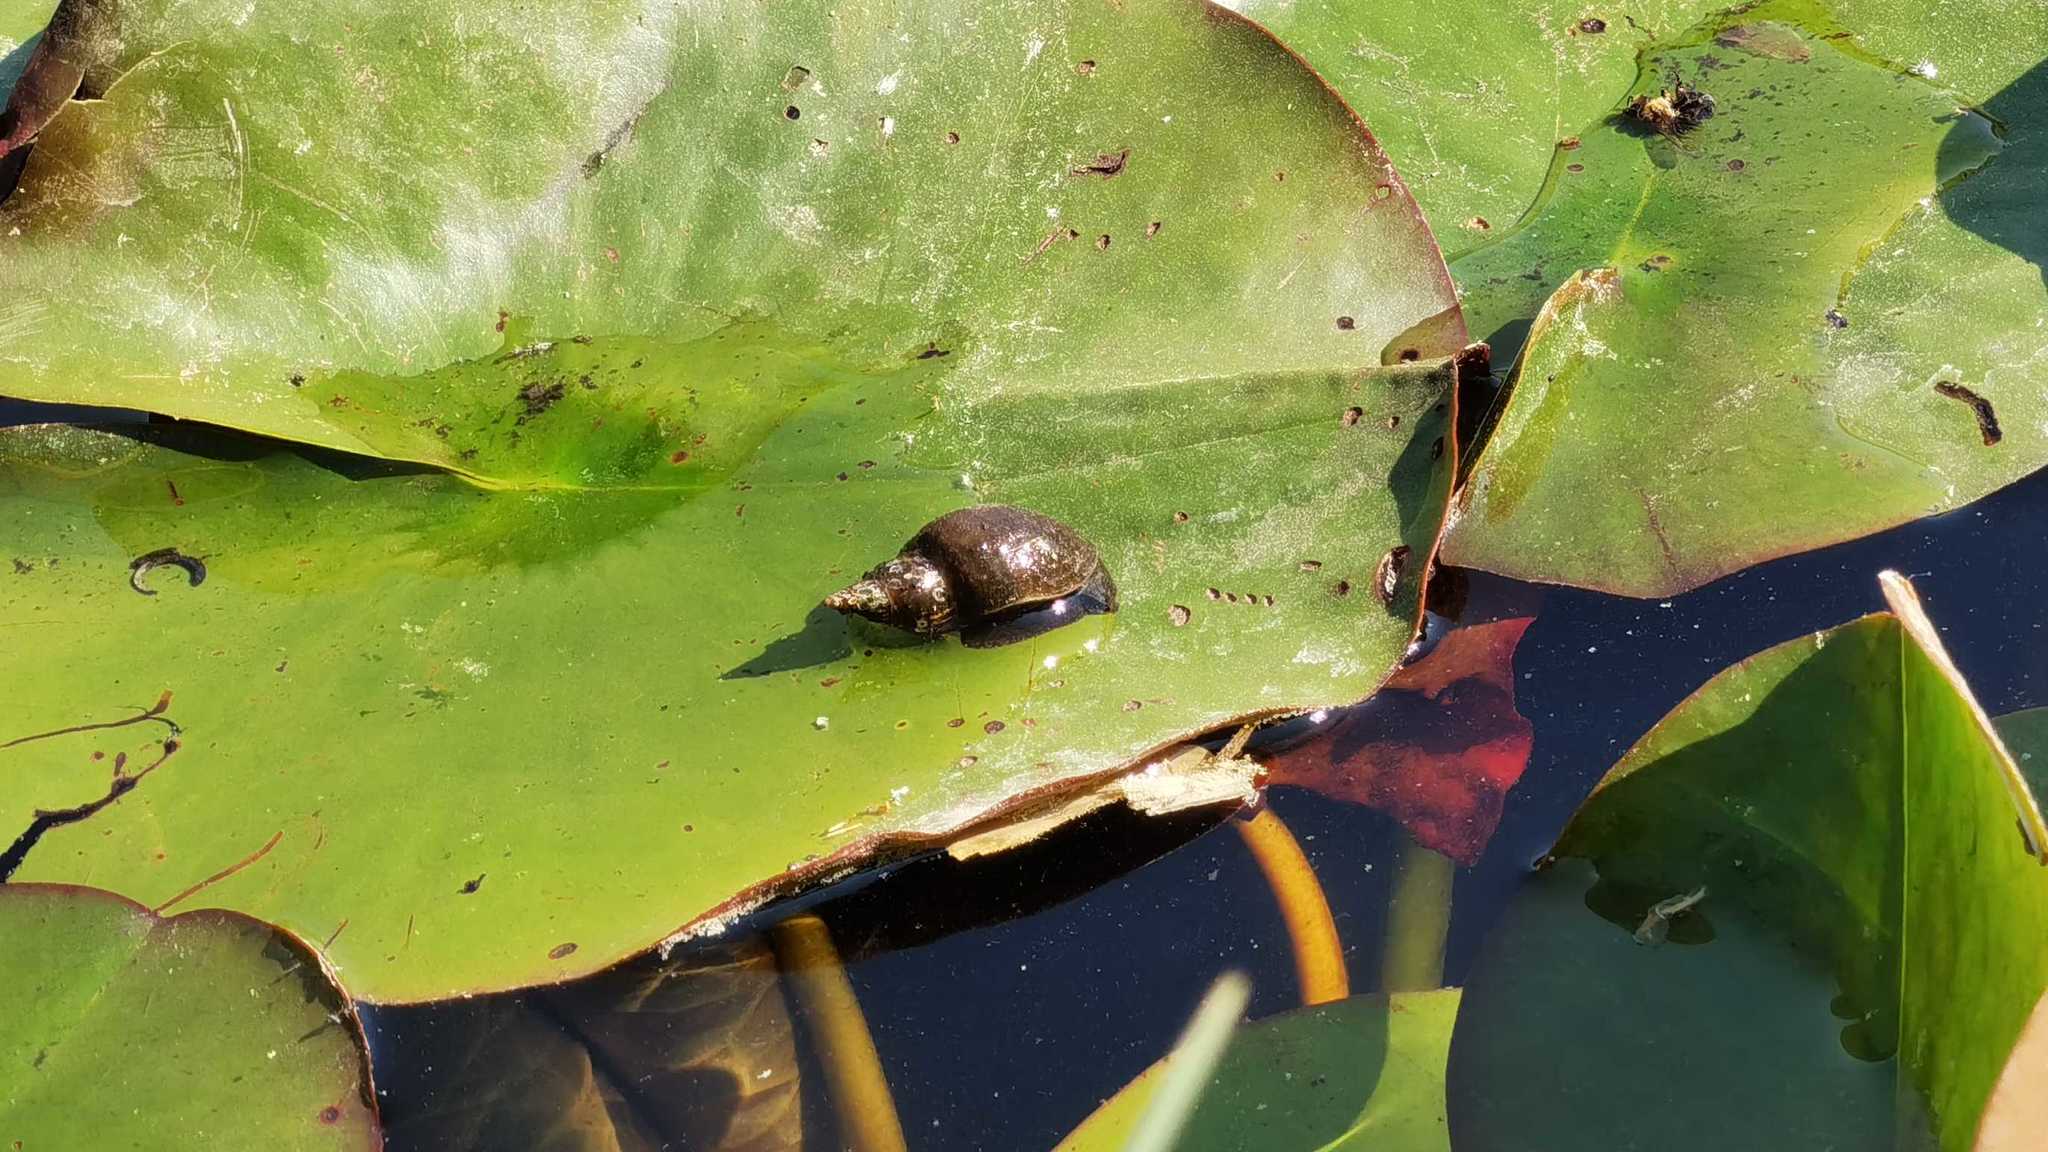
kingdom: Animalia
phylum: Mollusca
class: Gastropoda
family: Lymnaeidae
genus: Lymnaea
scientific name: Lymnaea stagnalis
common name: Great pond snail
